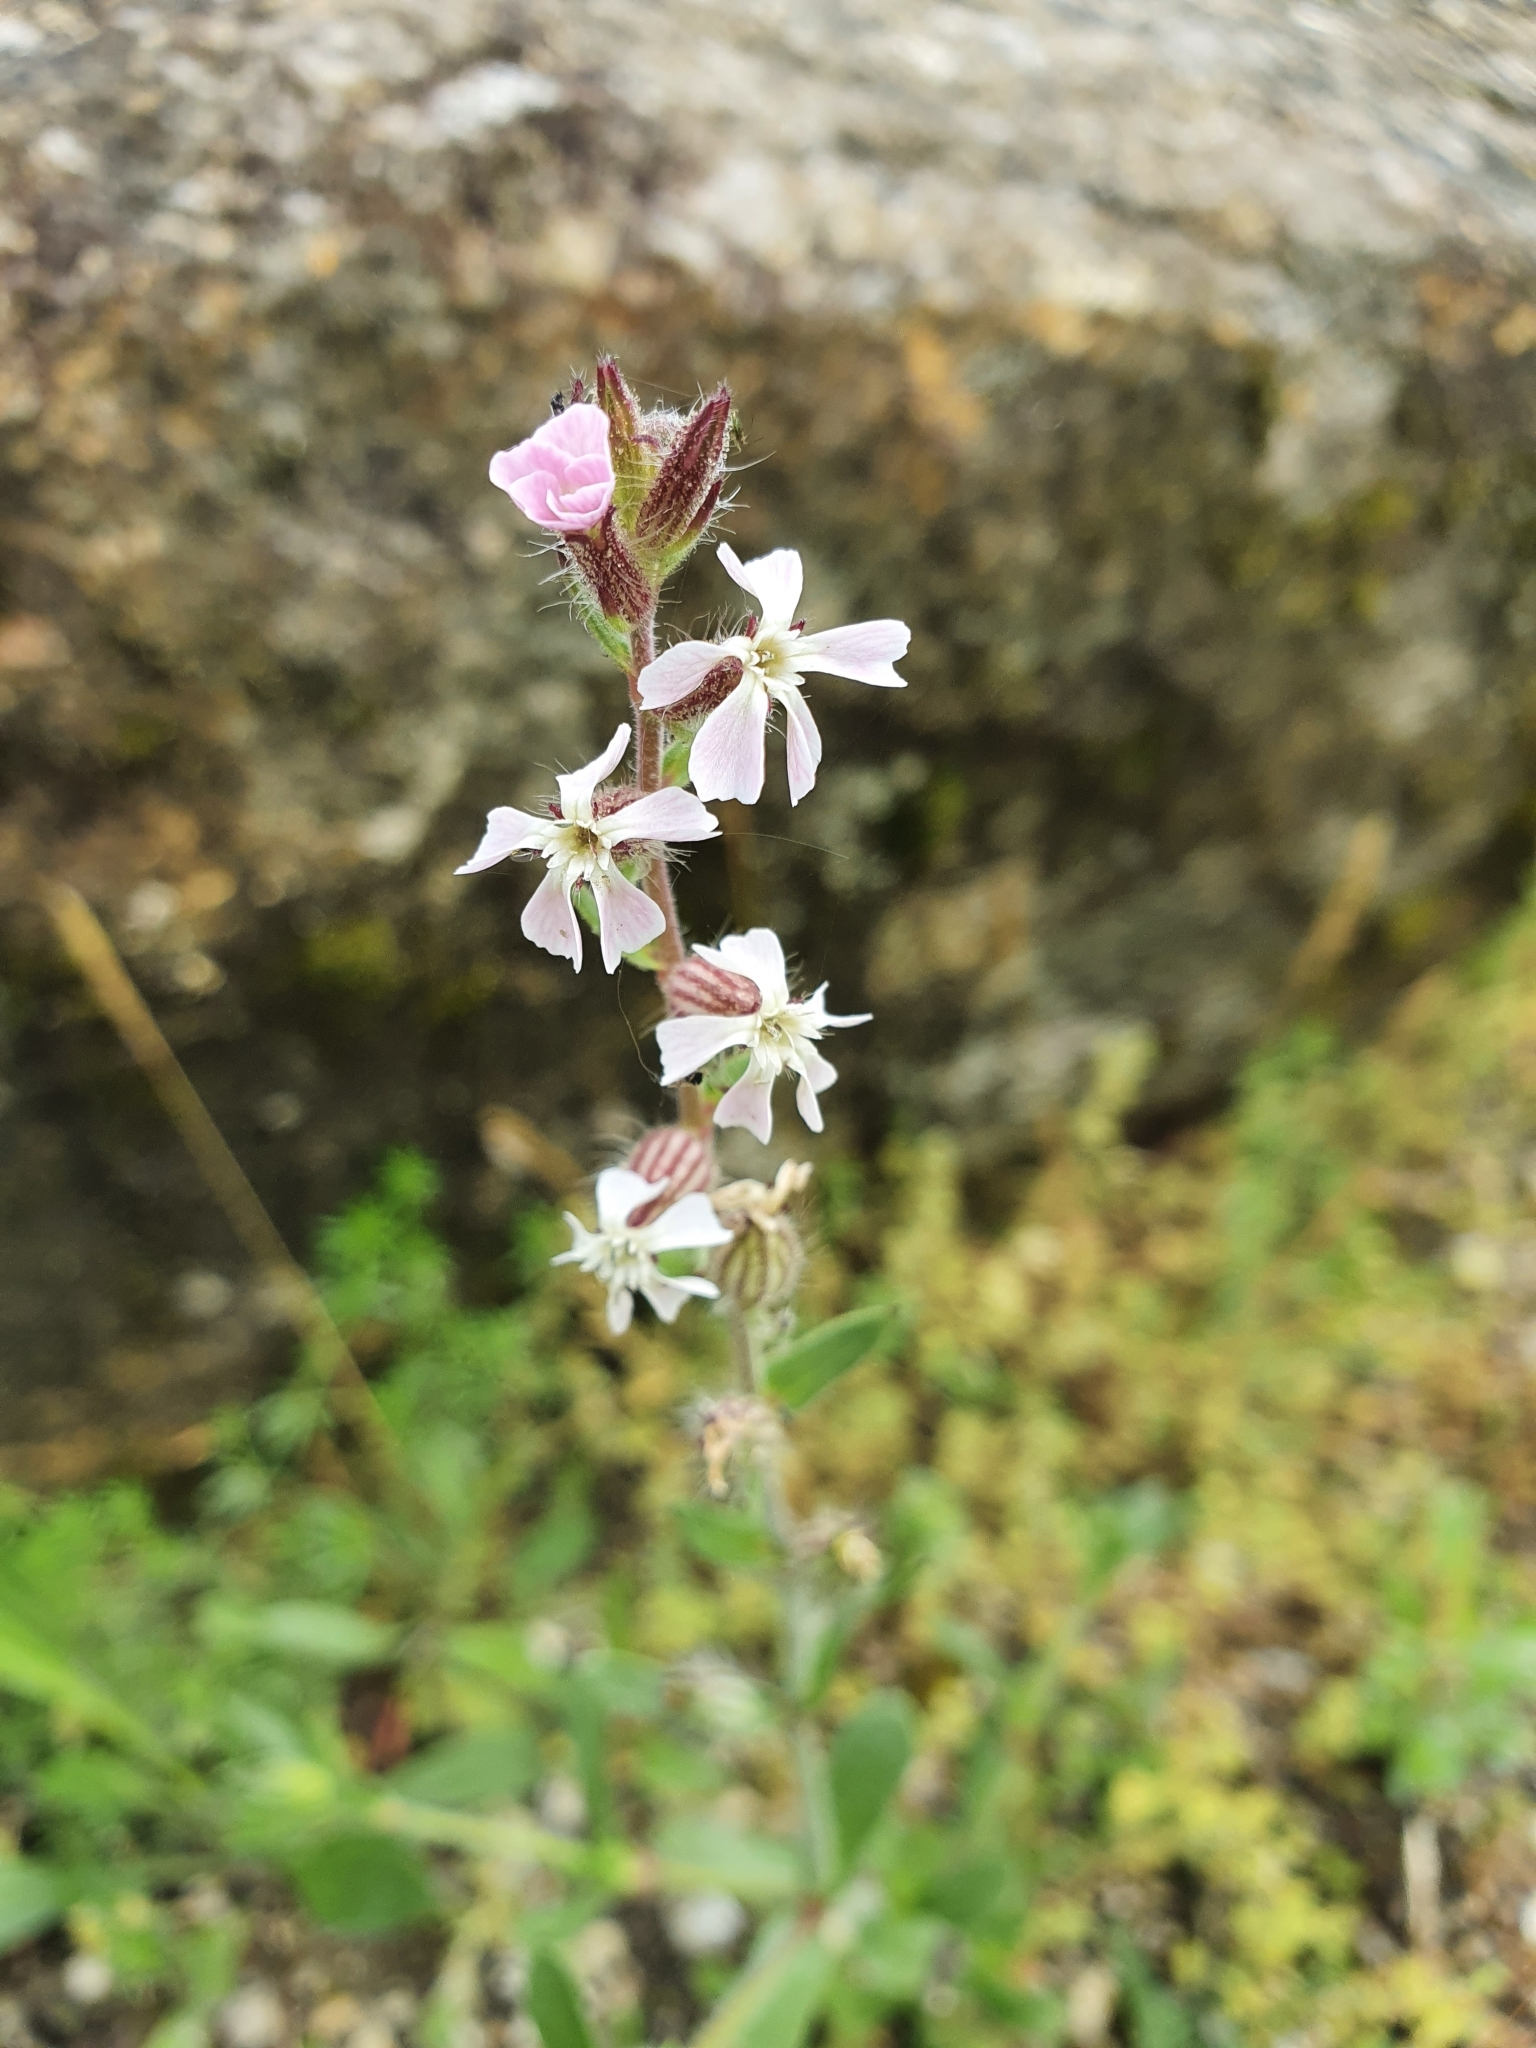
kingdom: Plantae
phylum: Tracheophyta
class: Magnoliopsida
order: Caryophyllales
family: Caryophyllaceae
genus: Silene
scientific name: Silene gallica
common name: Small-flowered catchfly
